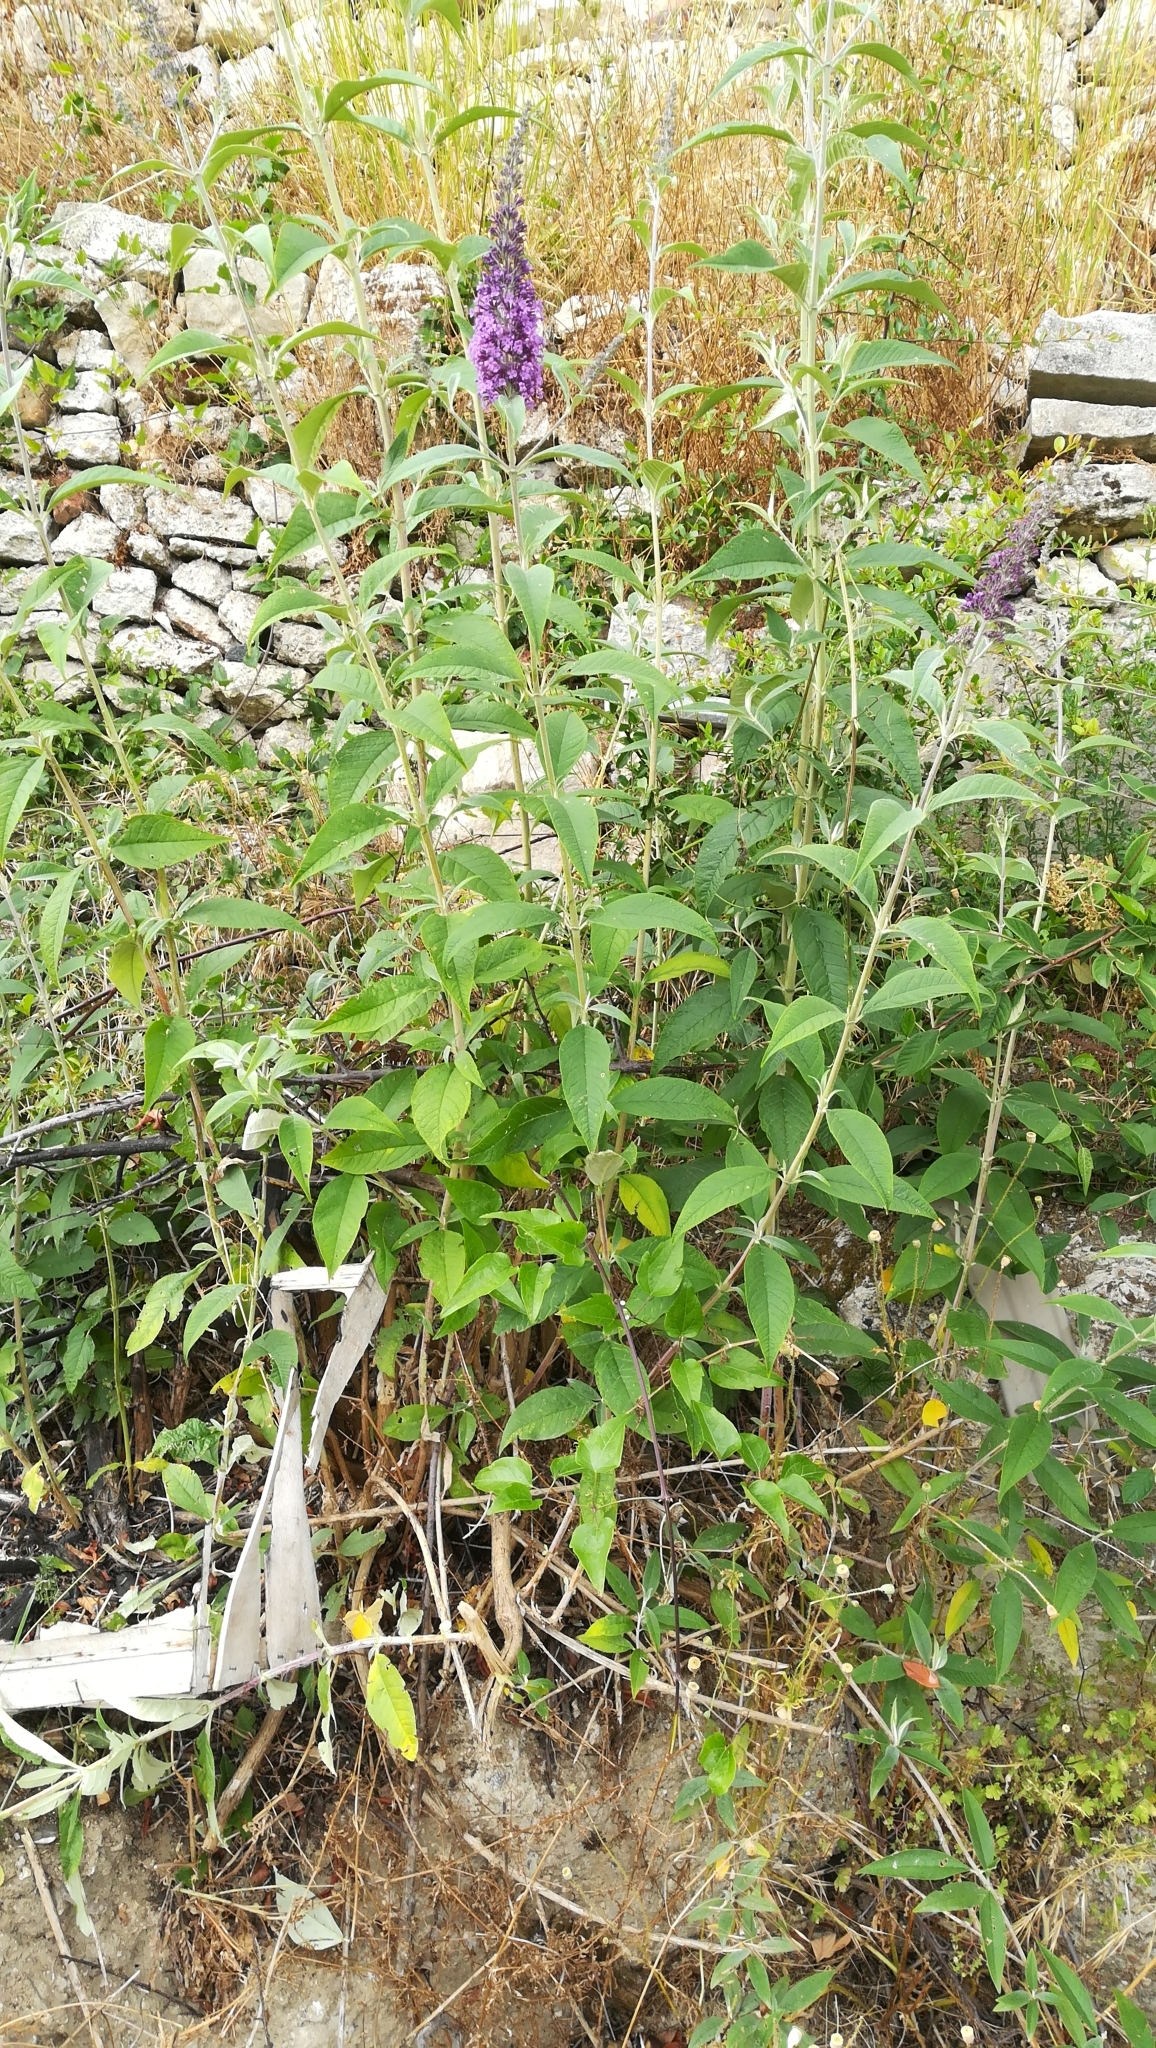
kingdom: Plantae
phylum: Tracheophyta
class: Magnoliopsida
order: Lamiales
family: Scrophulariaceae
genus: Buddleja
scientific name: Buddleja davidii
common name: Butterfly-bush
